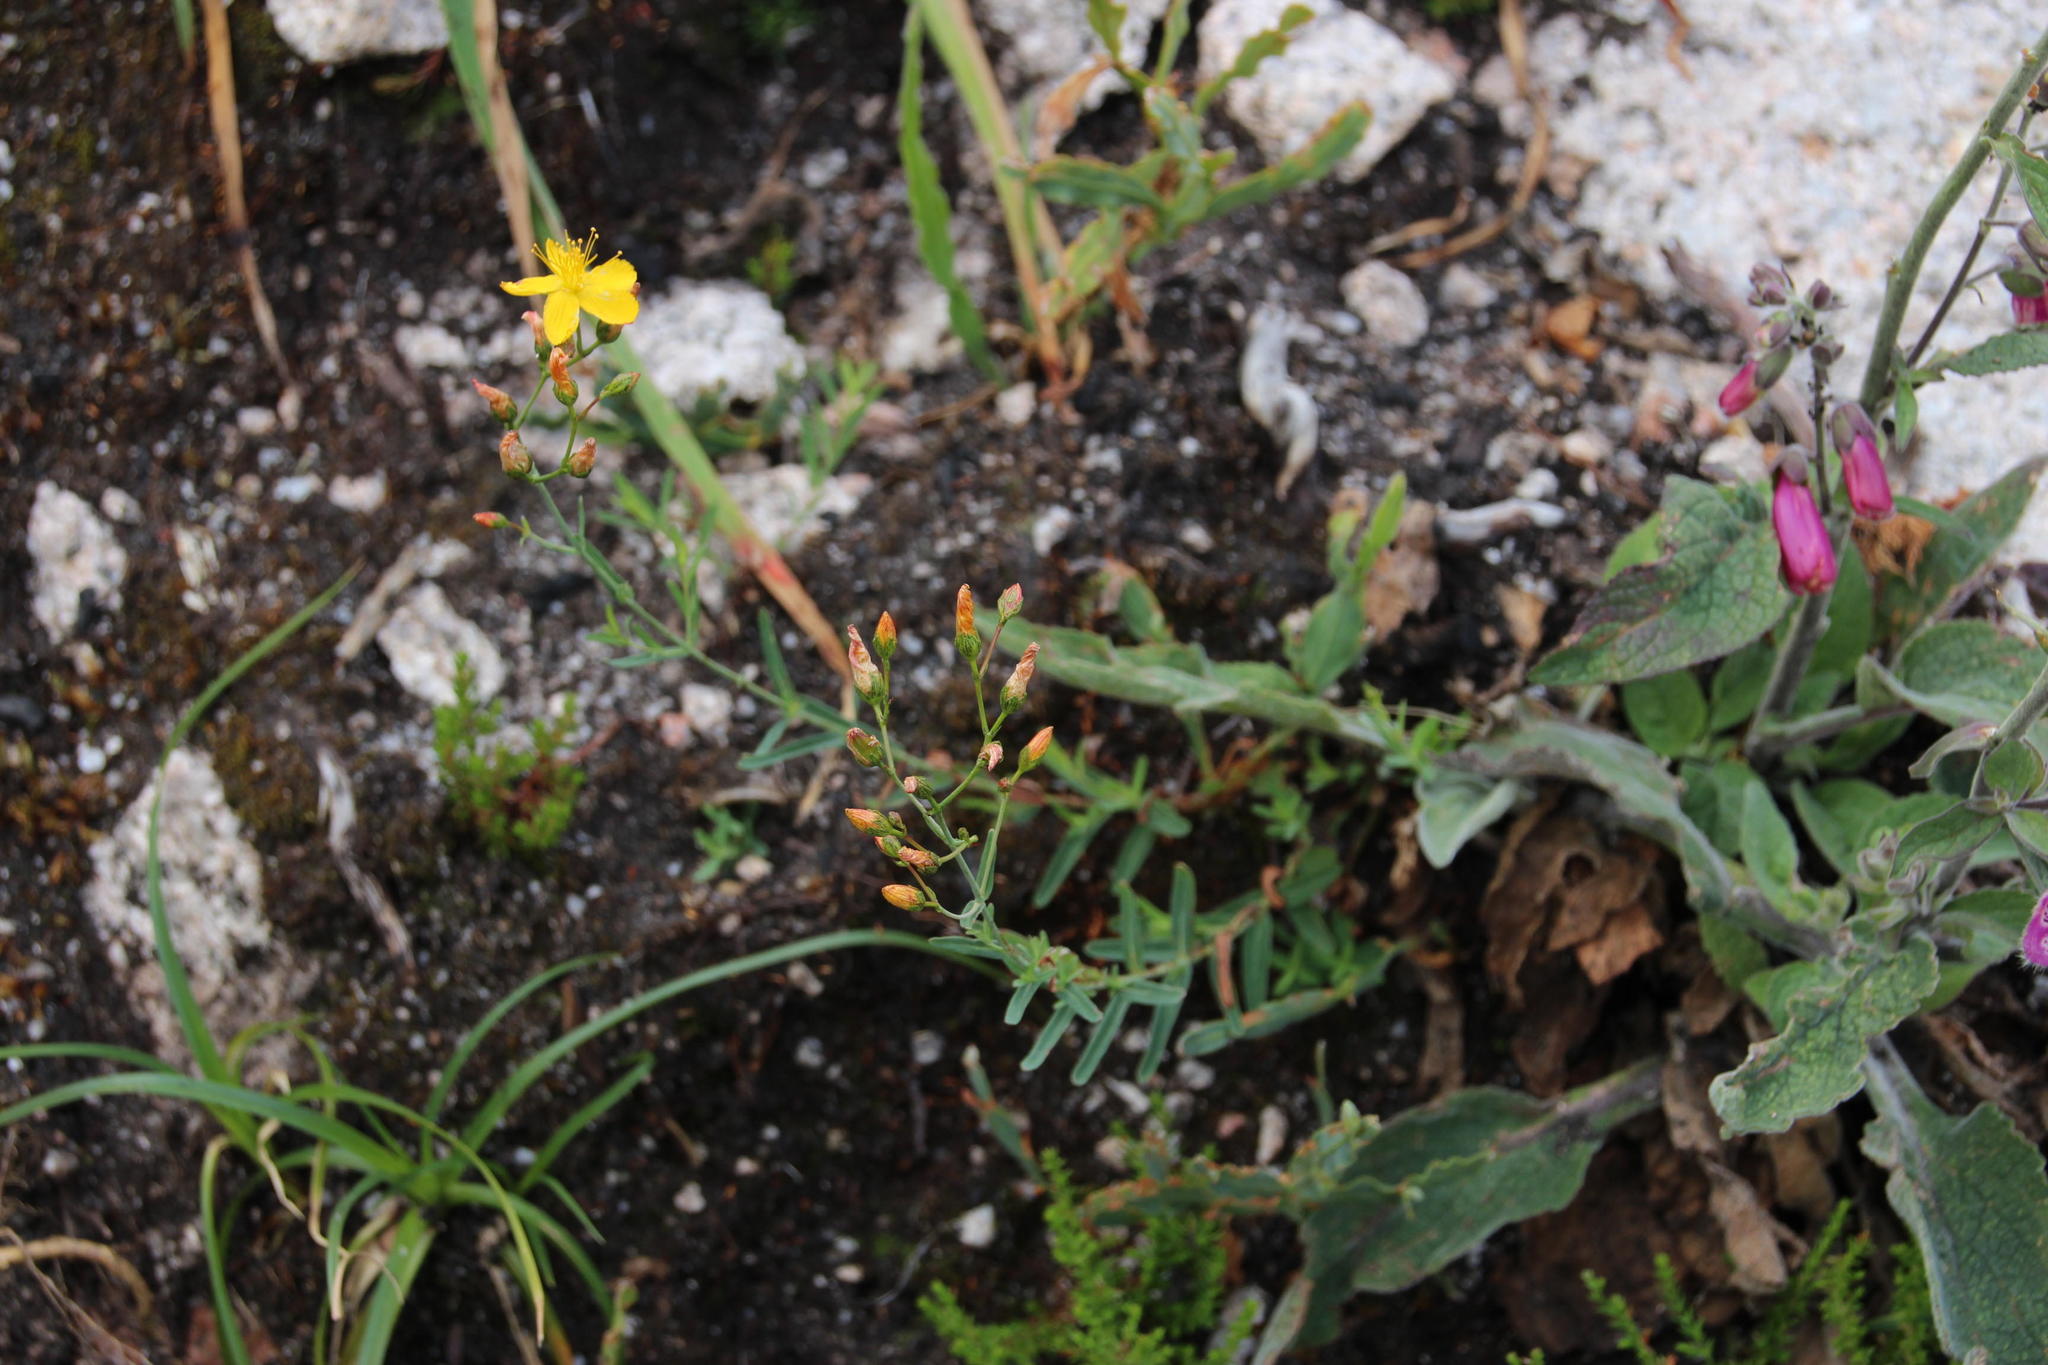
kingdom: Plantae
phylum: Tracheophyta
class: Magnoliopsida
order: Malpighiales
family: Hypericaceae
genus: Hypericum
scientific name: Hypericum linariifolium
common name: Toadflax-leaved st. john's-wort
